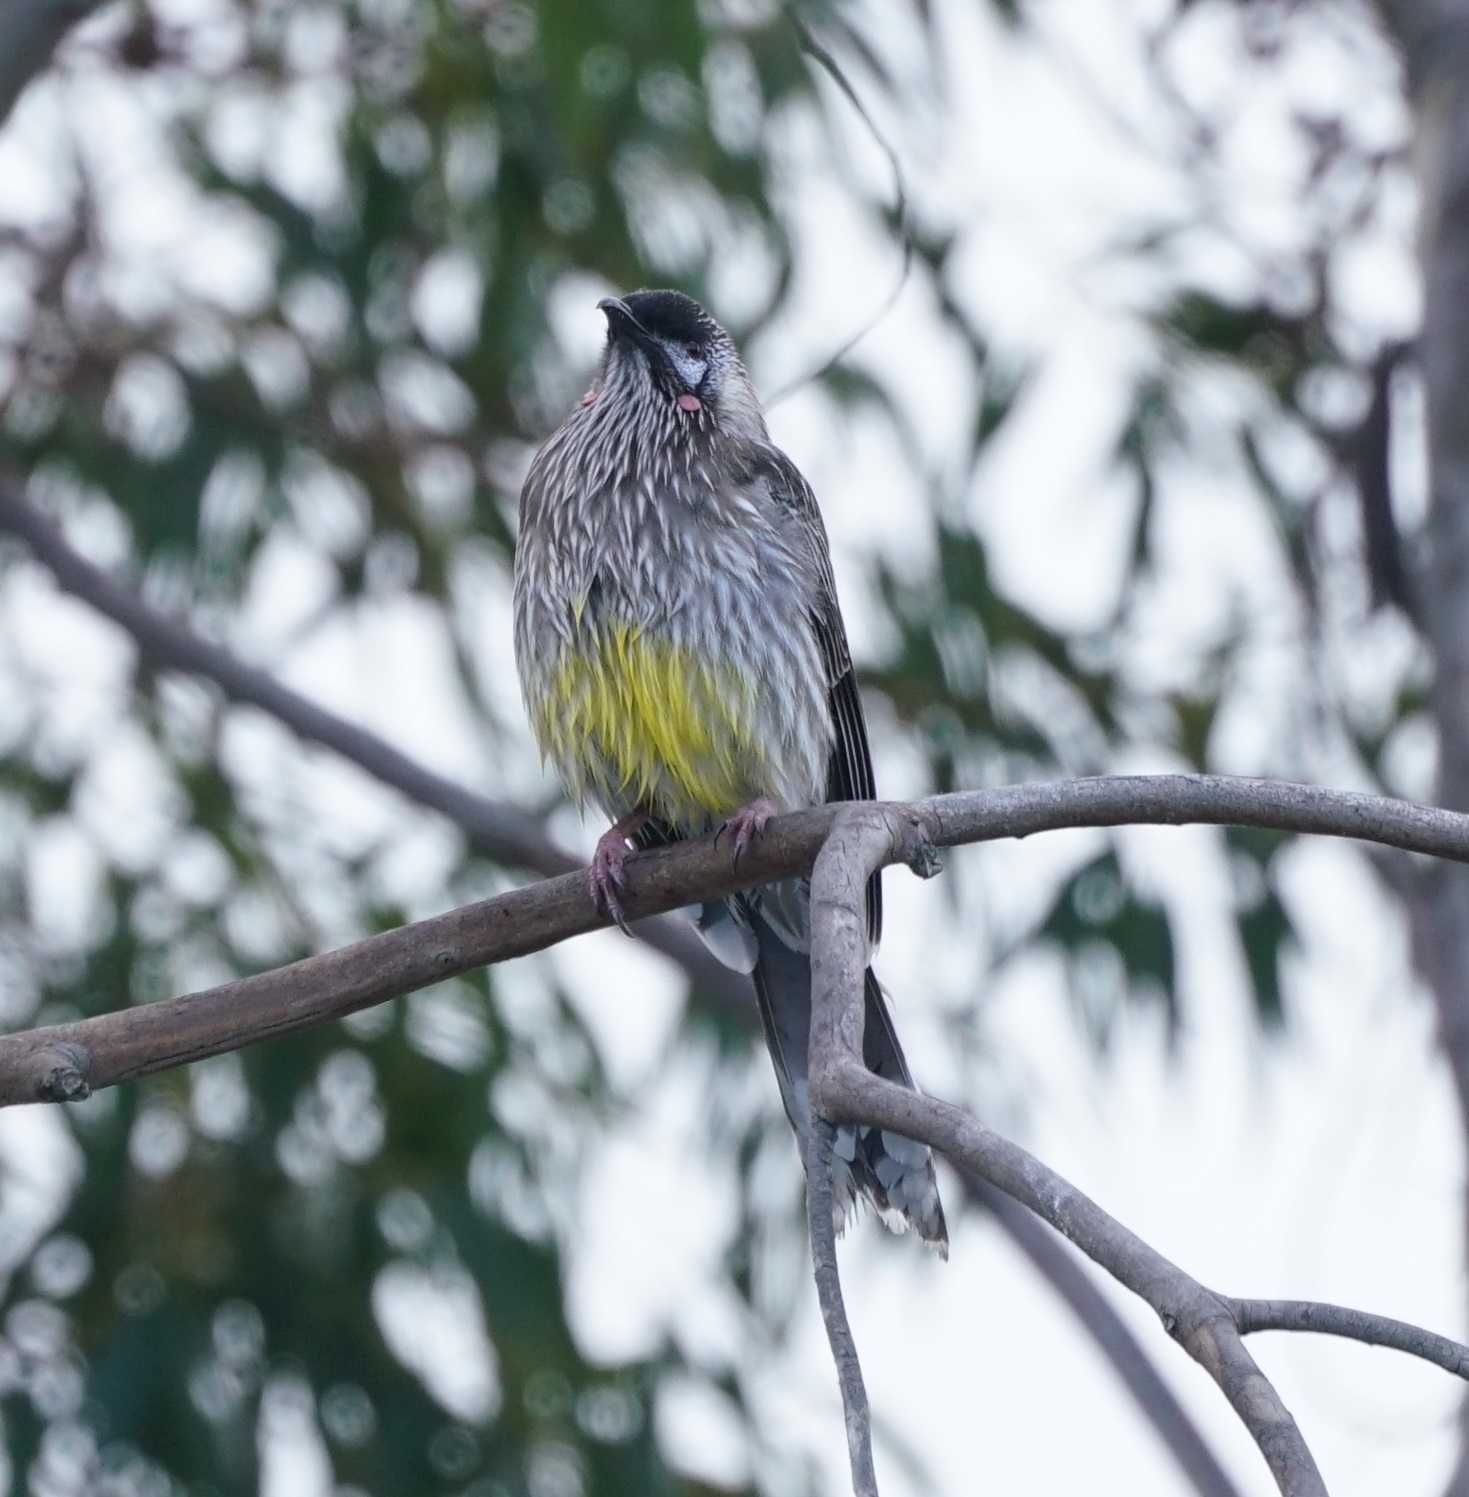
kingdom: Animalia
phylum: Chordata
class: Aves
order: Passeriformes
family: Meliphagidae
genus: Anthochaera
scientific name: Anthochaera carunculata
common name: Red wattlebird
